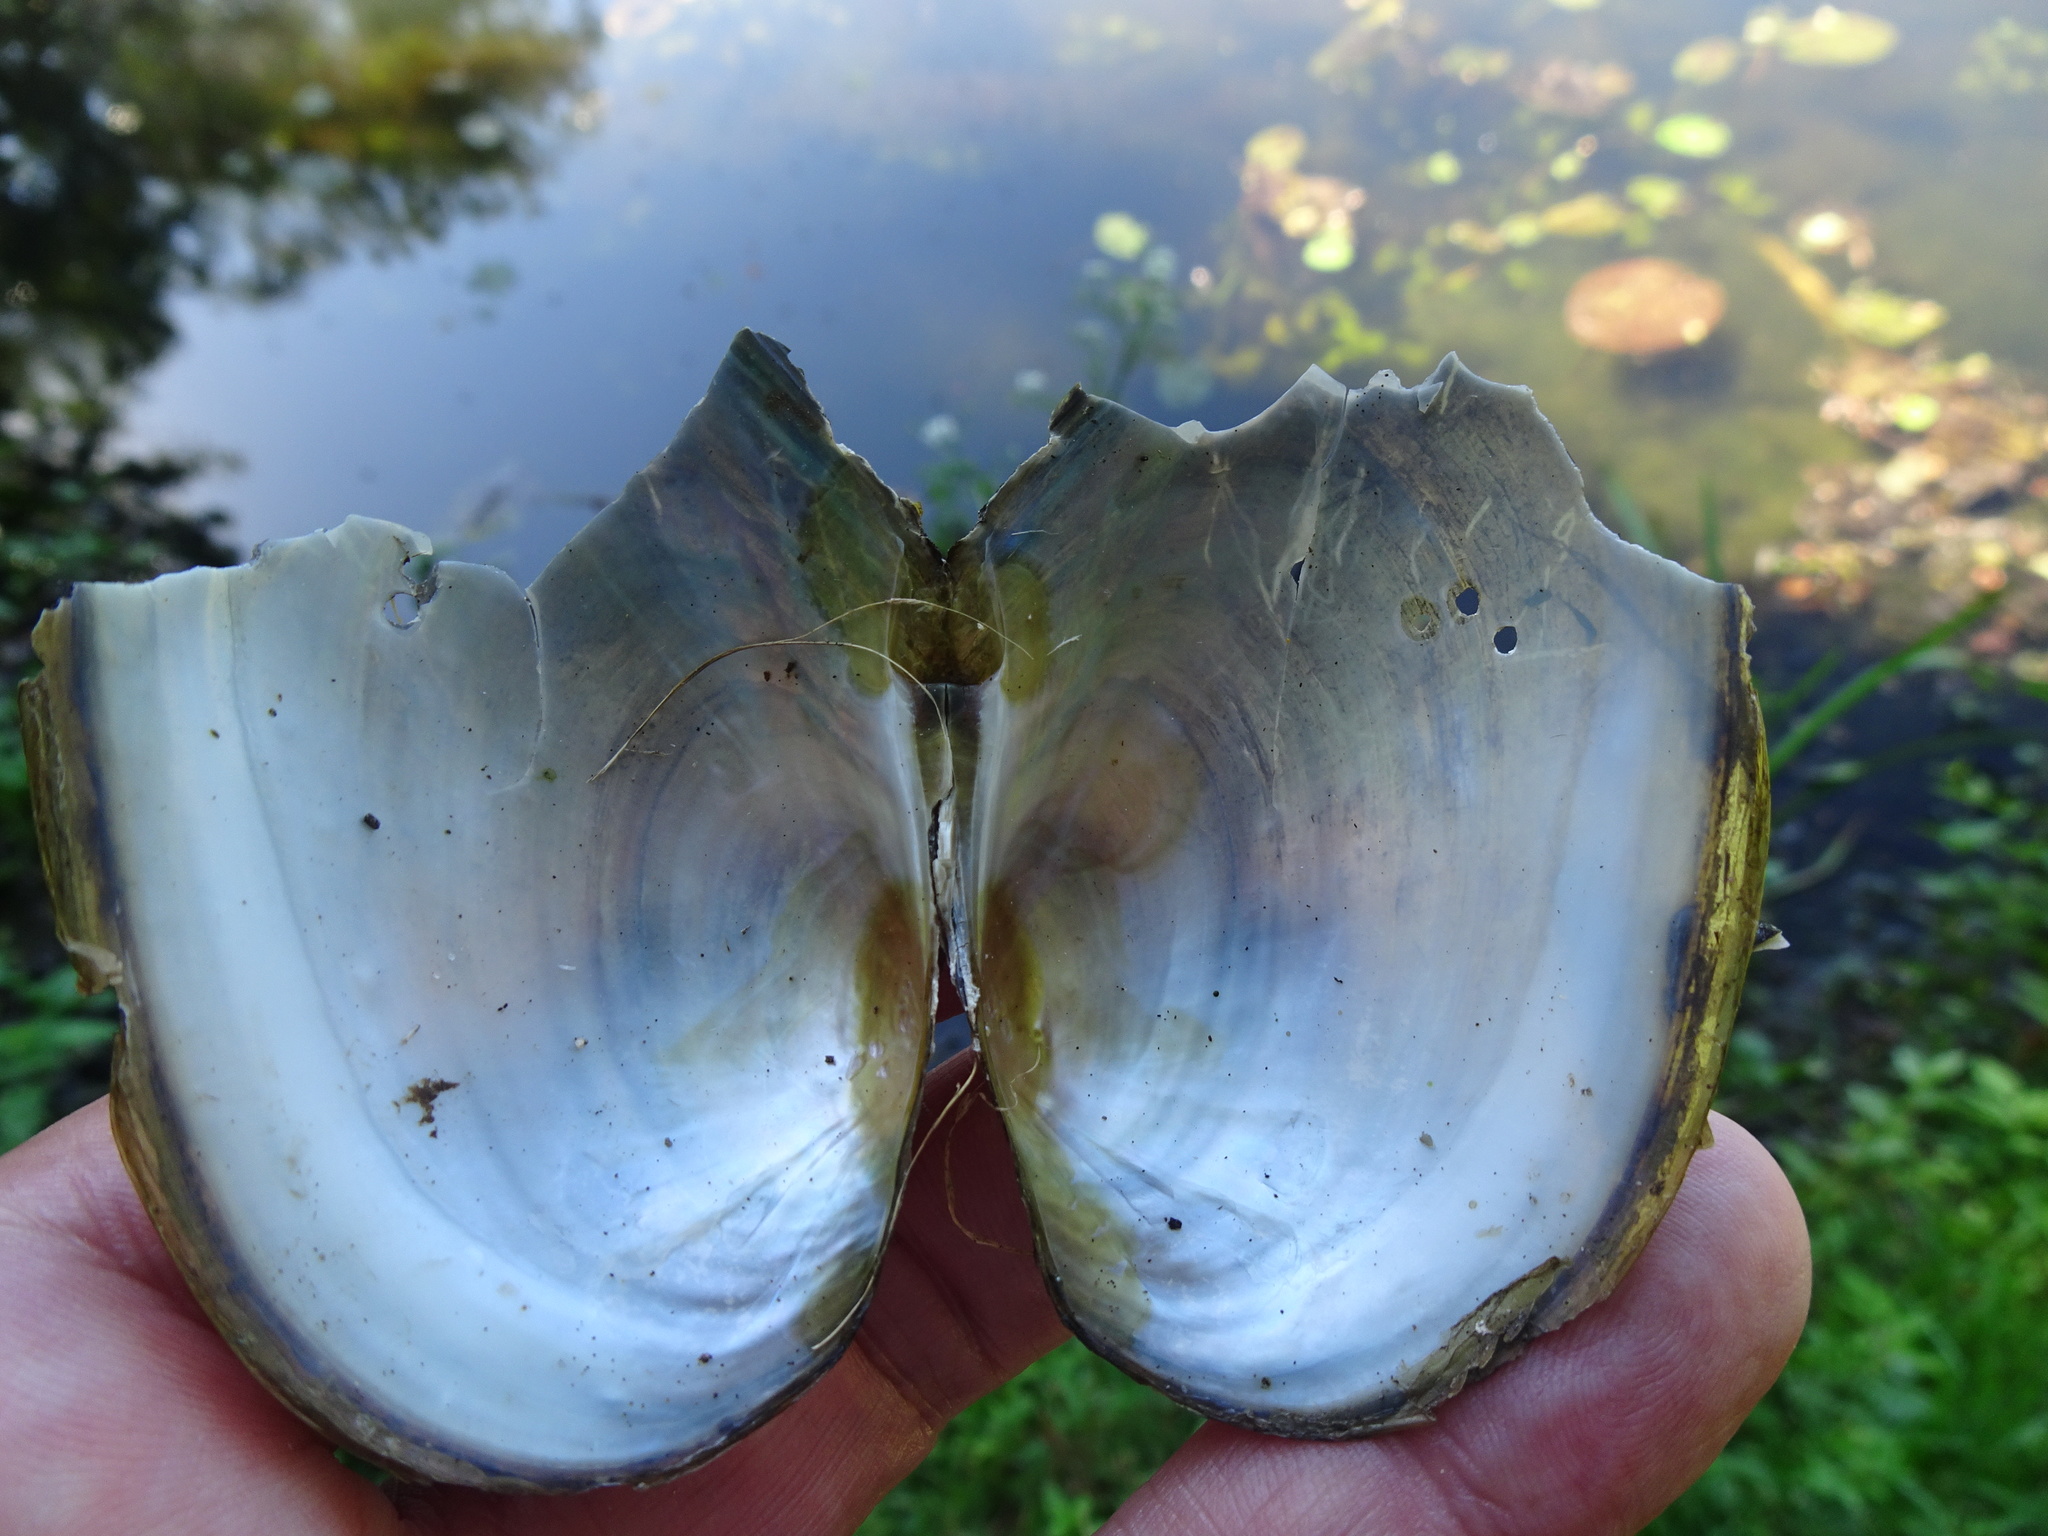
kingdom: Animalia
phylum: Mollusca
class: Bivalvia
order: Unionida
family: Unionidae
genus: Anodonta
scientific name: Anodonta anatina
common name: Duck mussel
